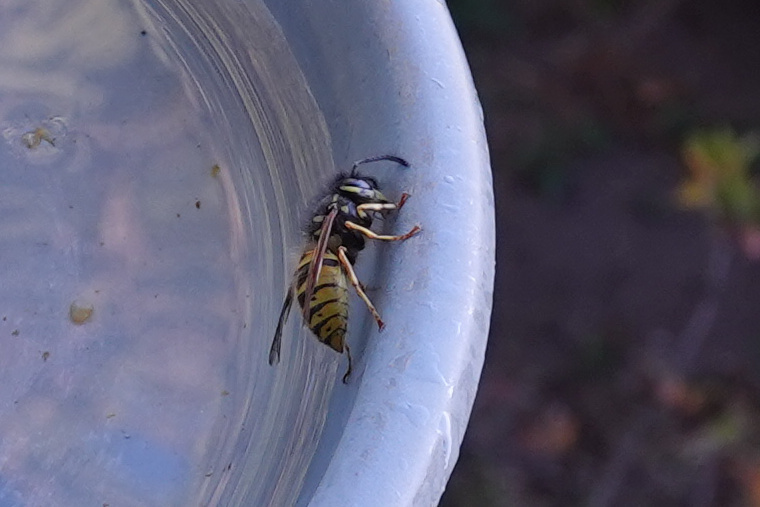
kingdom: Animalia
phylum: Arthropoda
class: Insecta
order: Hymenoptera
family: Vespidae
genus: Vespula
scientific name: Vespula vulgaris
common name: Common wasp
